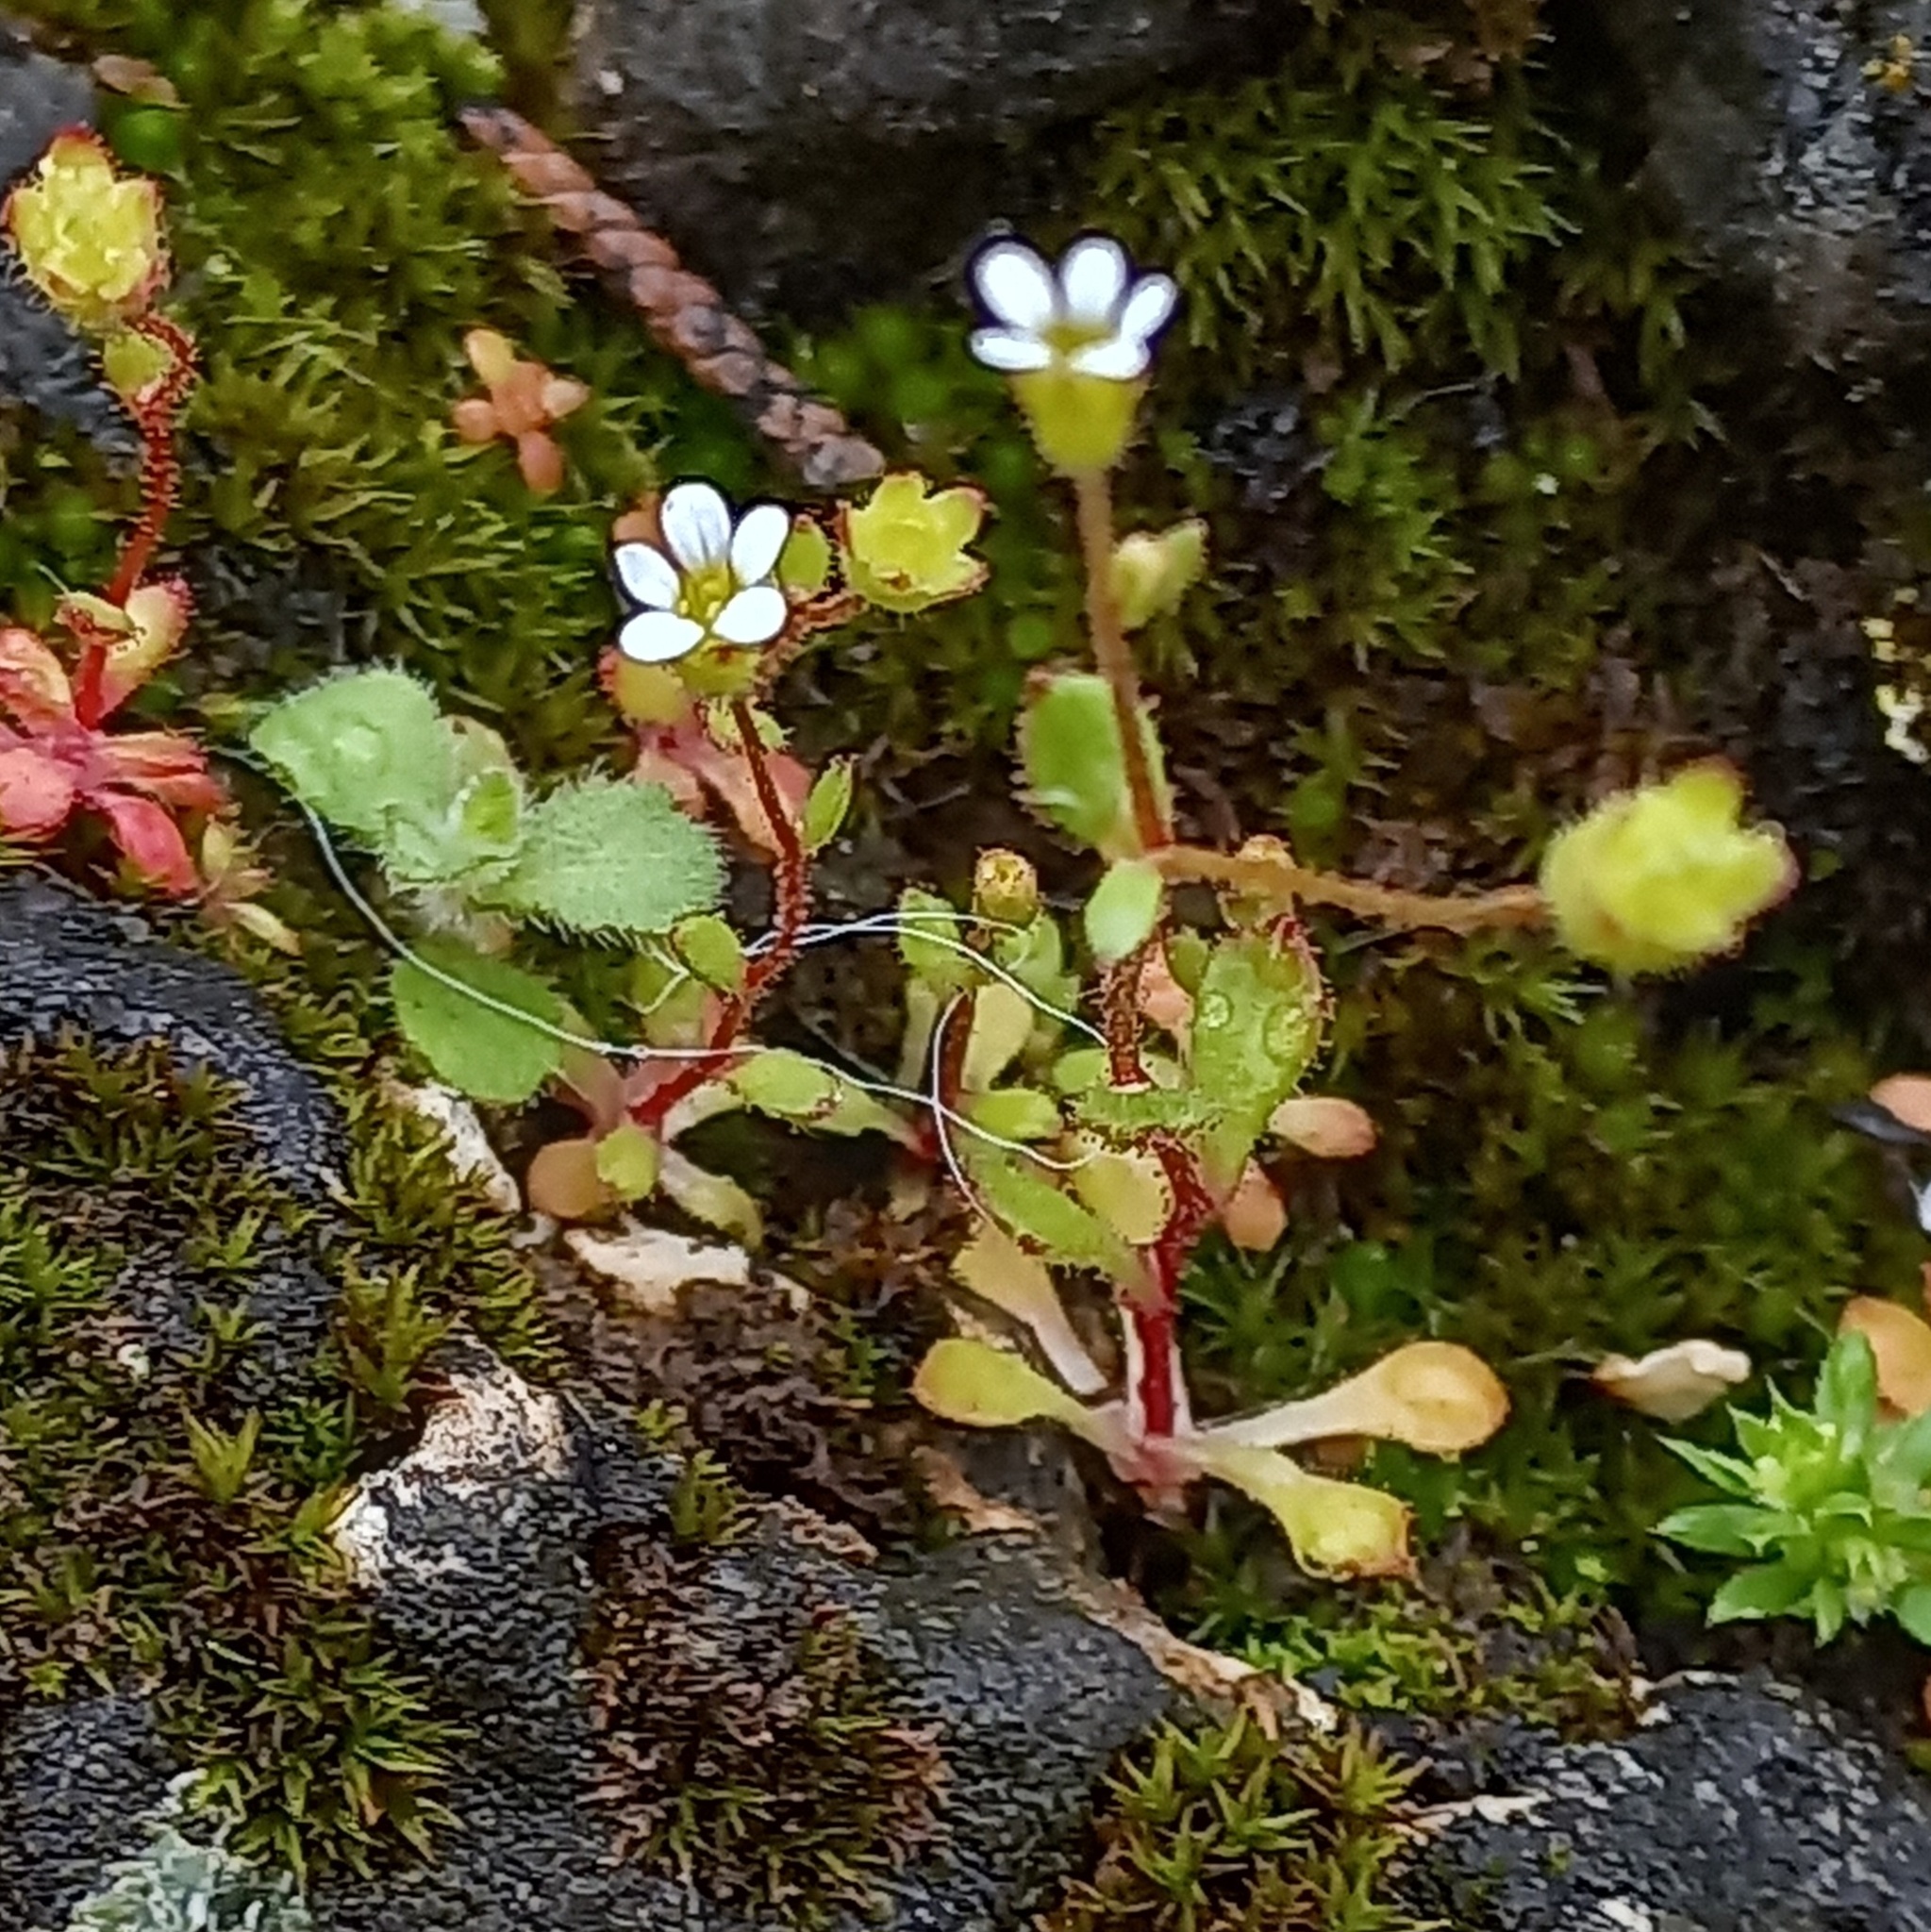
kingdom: Plantae
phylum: Tracheophyta
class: Magnoliopsida
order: Saxifragales
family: Saxifragaceae
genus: Saxifraga
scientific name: Saxifraga tridactylites
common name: Rue-leaved saxifrage
